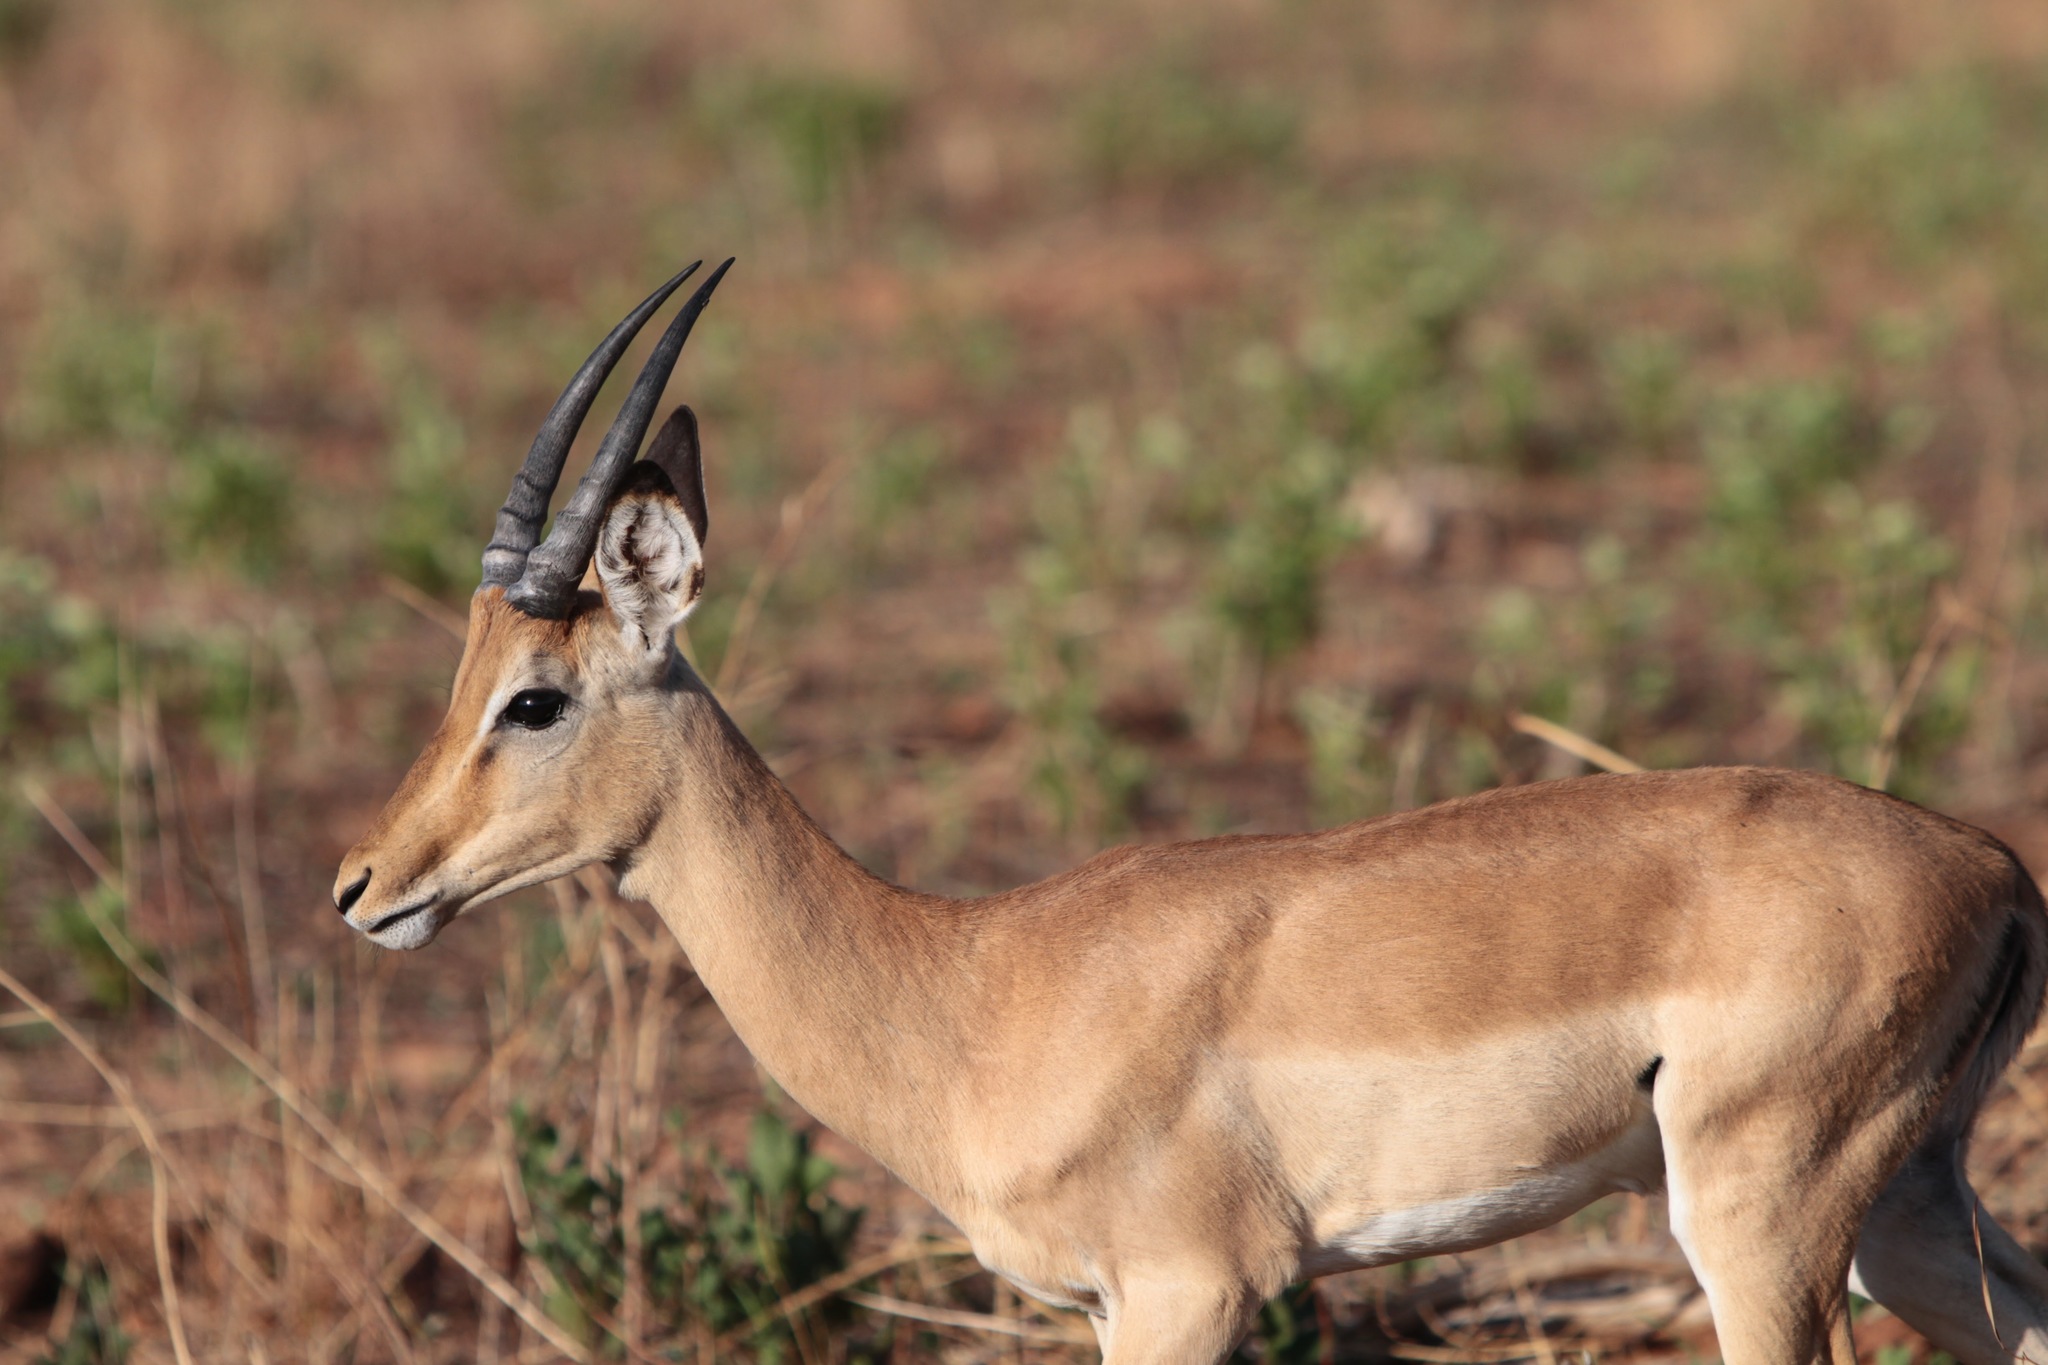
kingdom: Animalia
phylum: Chordata
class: Mammalia
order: Artiodactyla
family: Bovidae
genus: Aepyceros
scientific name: Aepyceros melampus
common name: Impala
